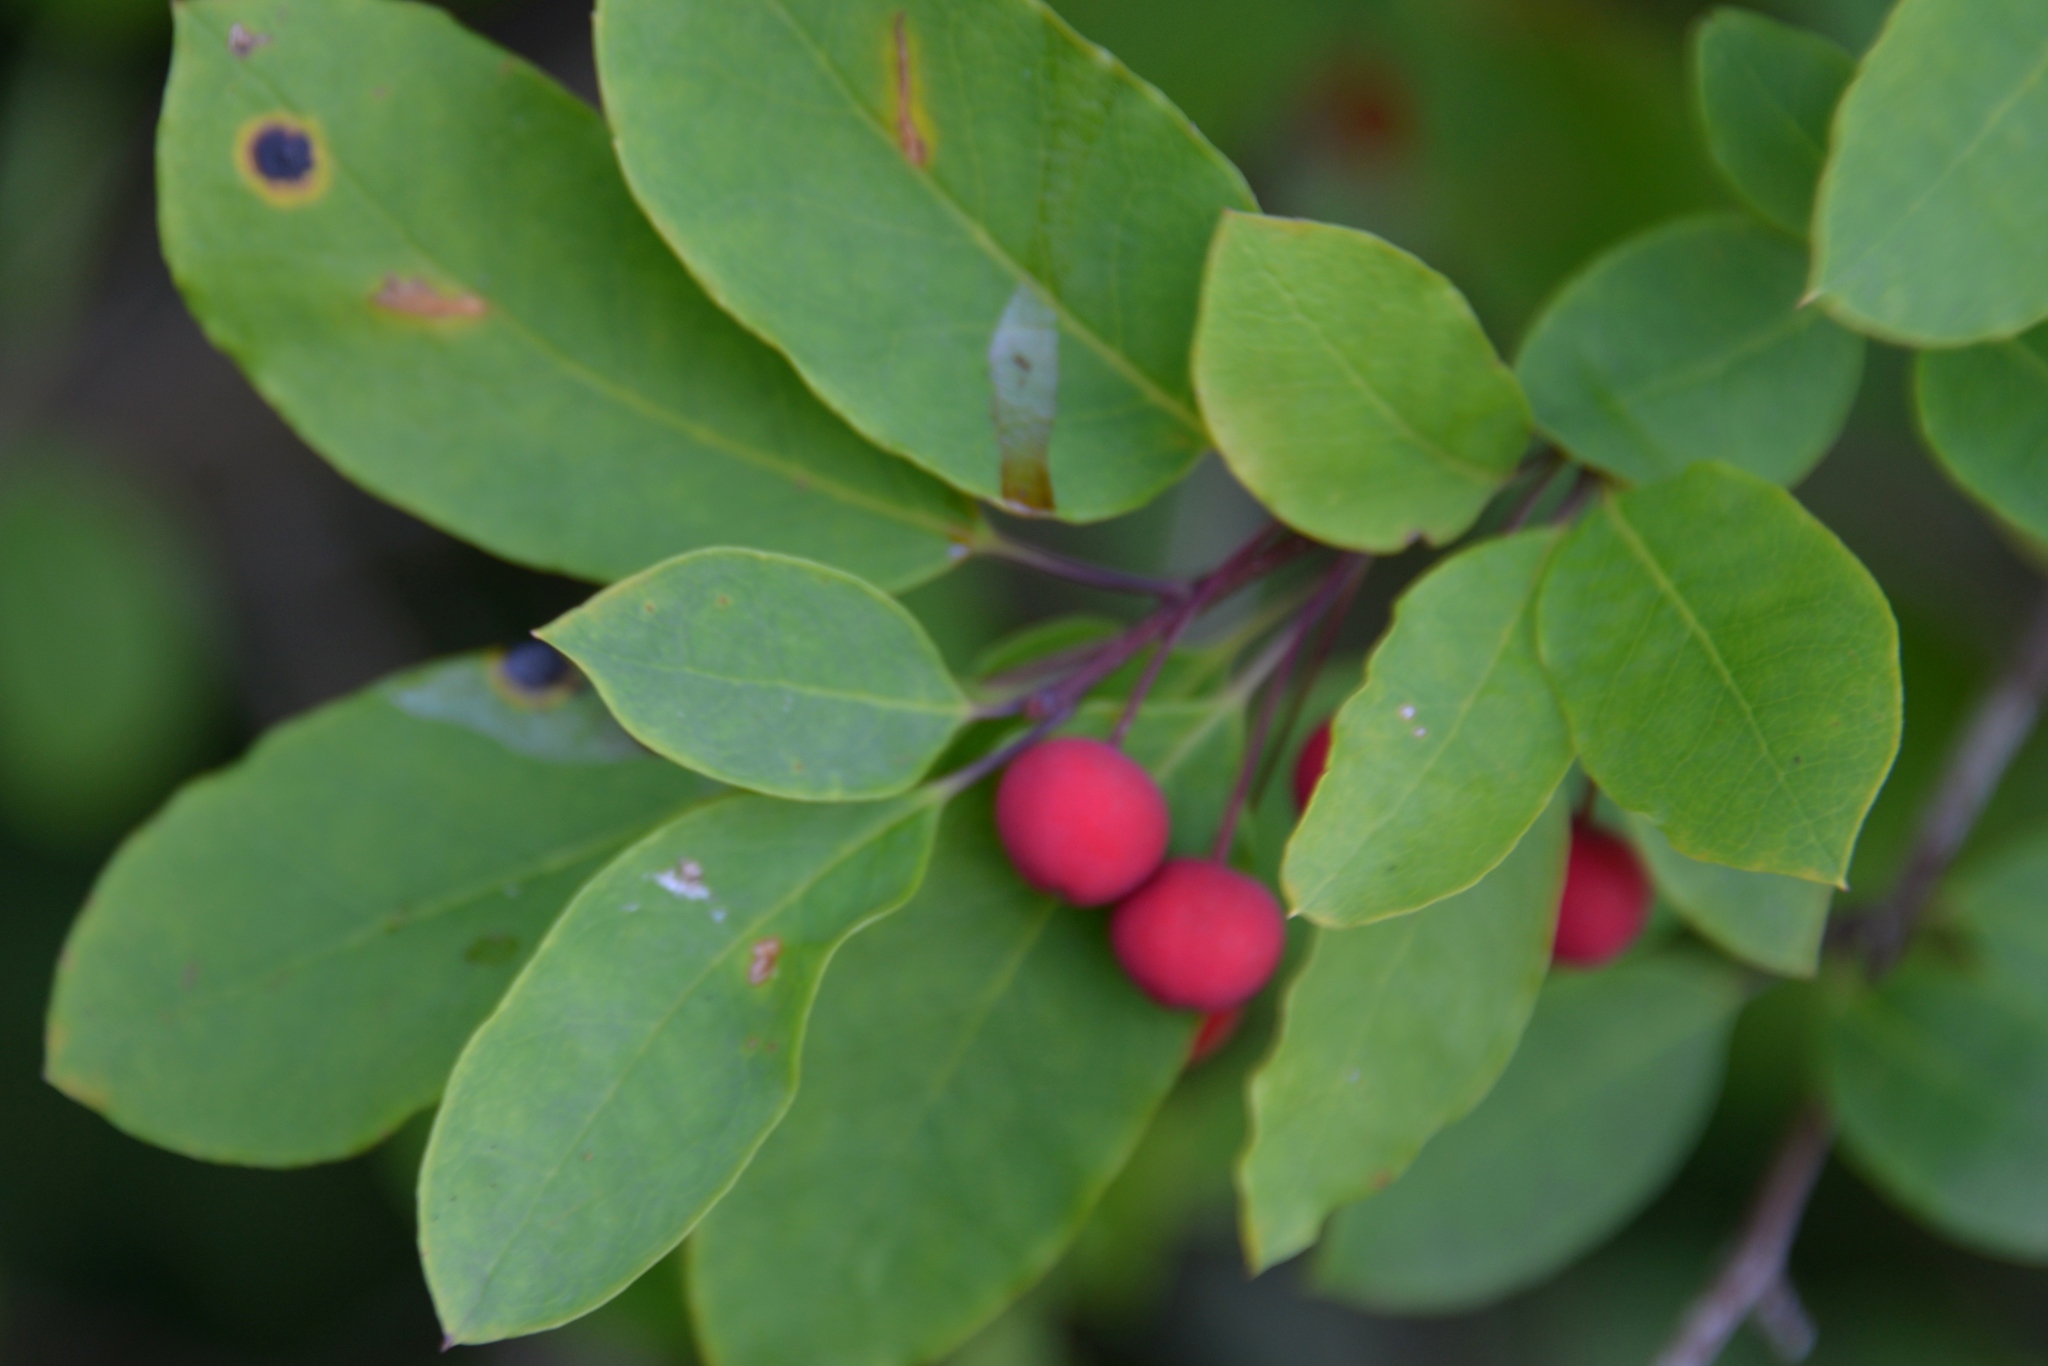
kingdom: Plantae
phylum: Tracheophyta
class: Magnoliopsida
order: Aquifoliales
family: Aquifoliaceae
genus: Ilex
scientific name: Ilex mucronata
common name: Catberry
